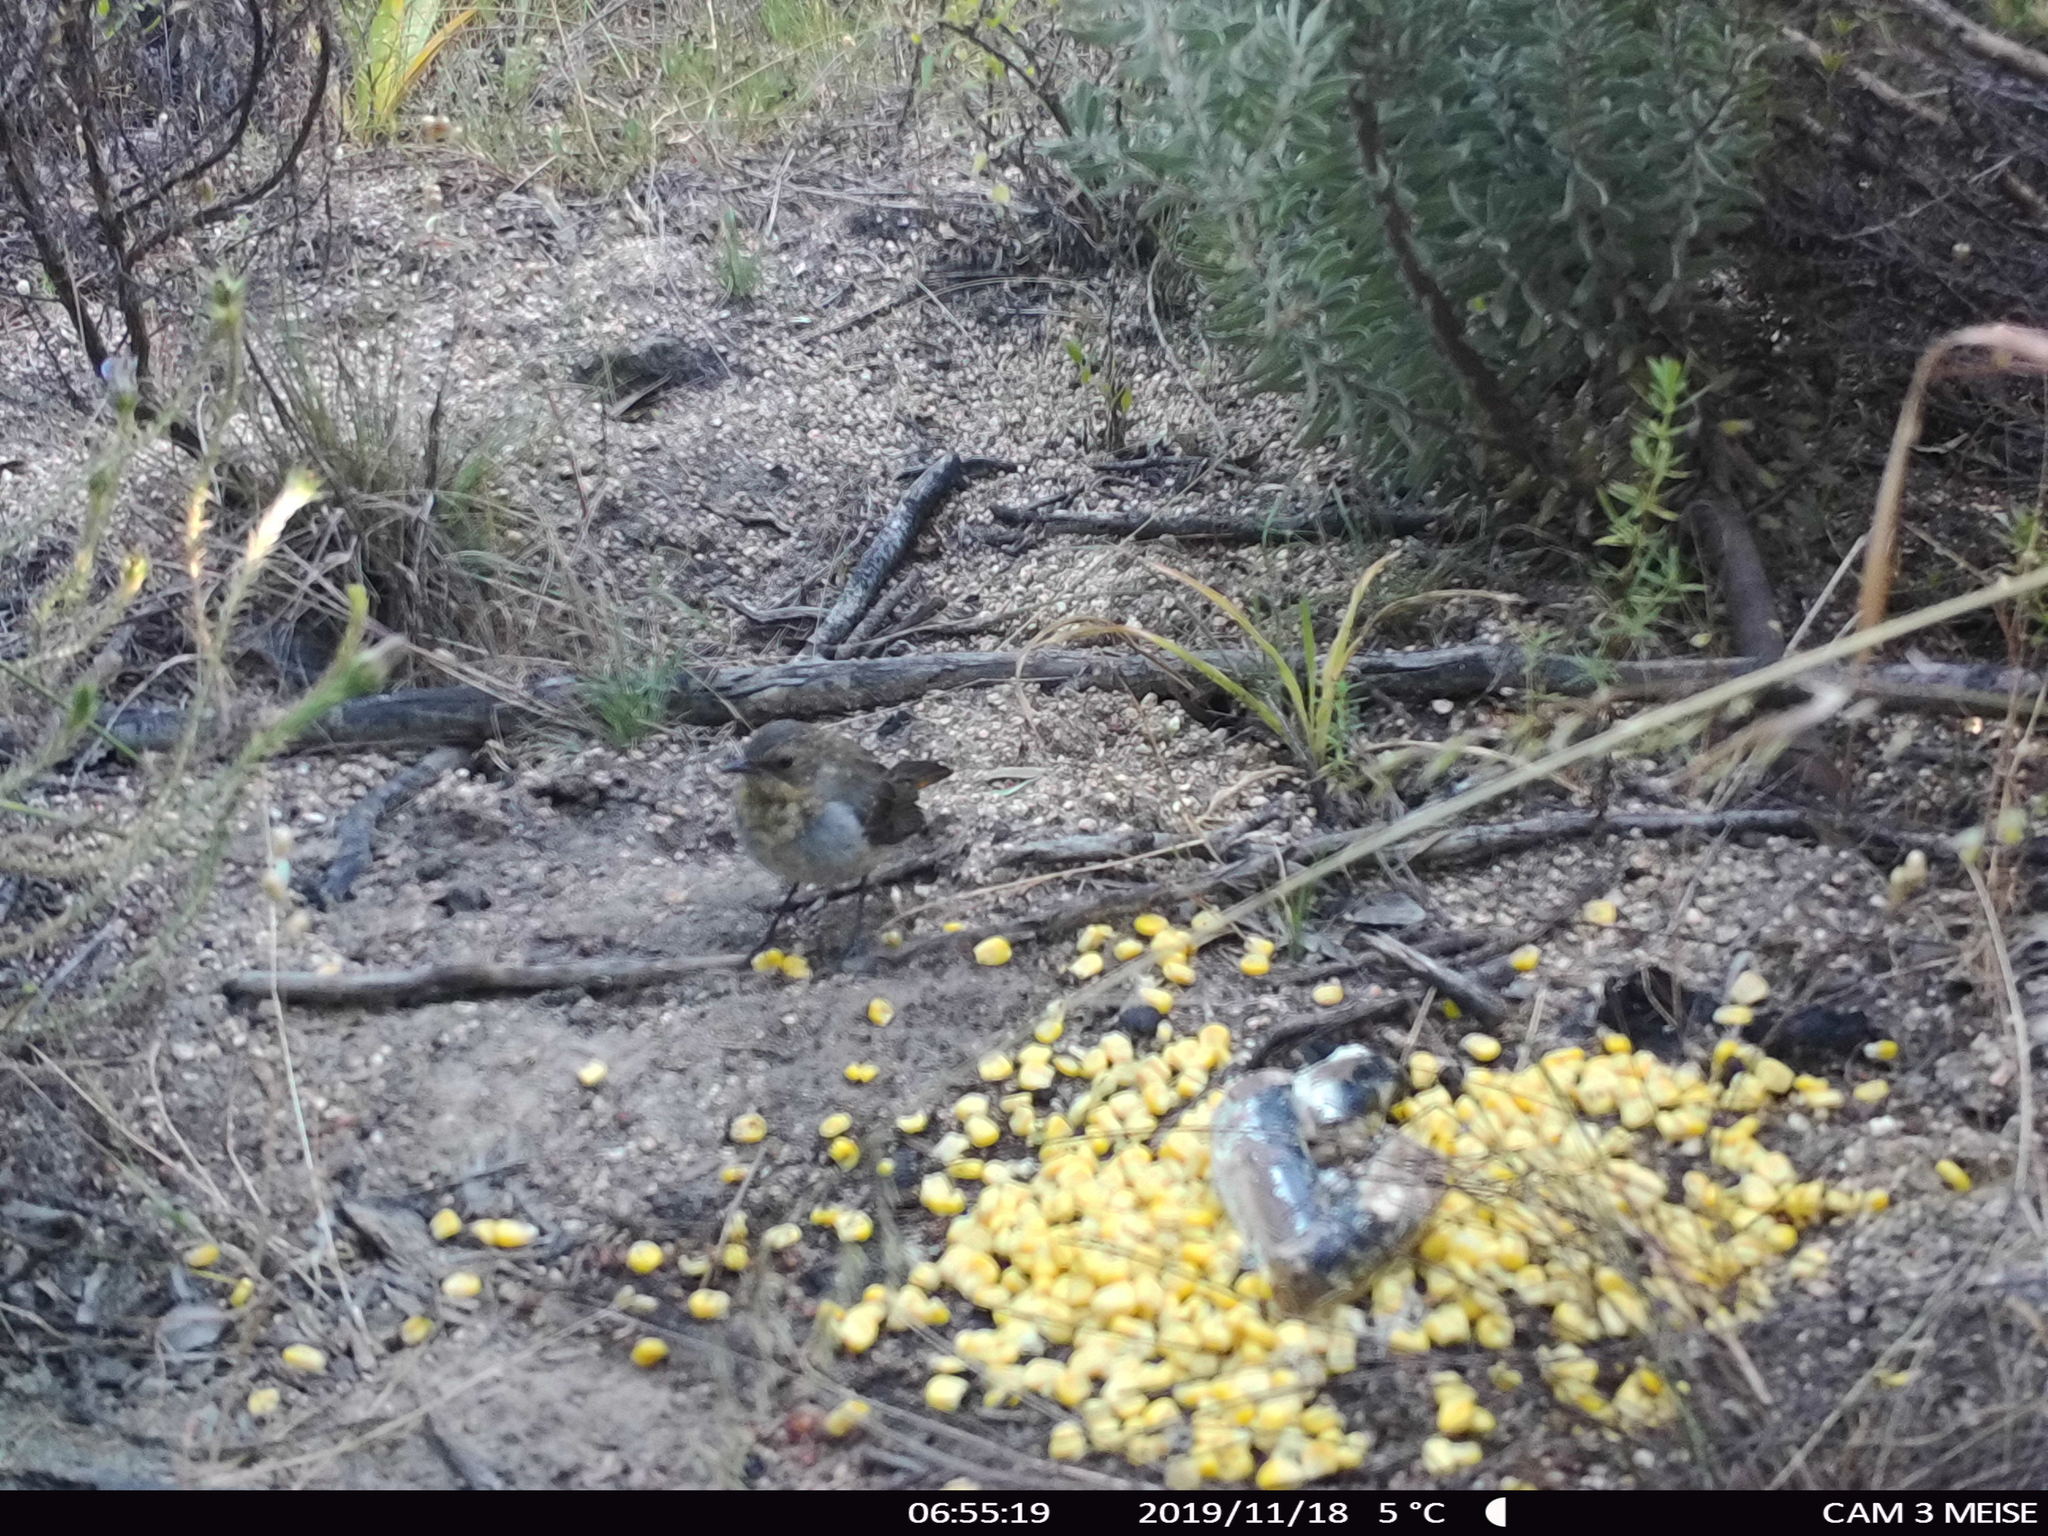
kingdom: Animalia
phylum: Chordata
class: Aves
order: Passeriformes
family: Muscicapidae
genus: Cossypha
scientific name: Cossypha caffra
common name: Cape robin-chat
